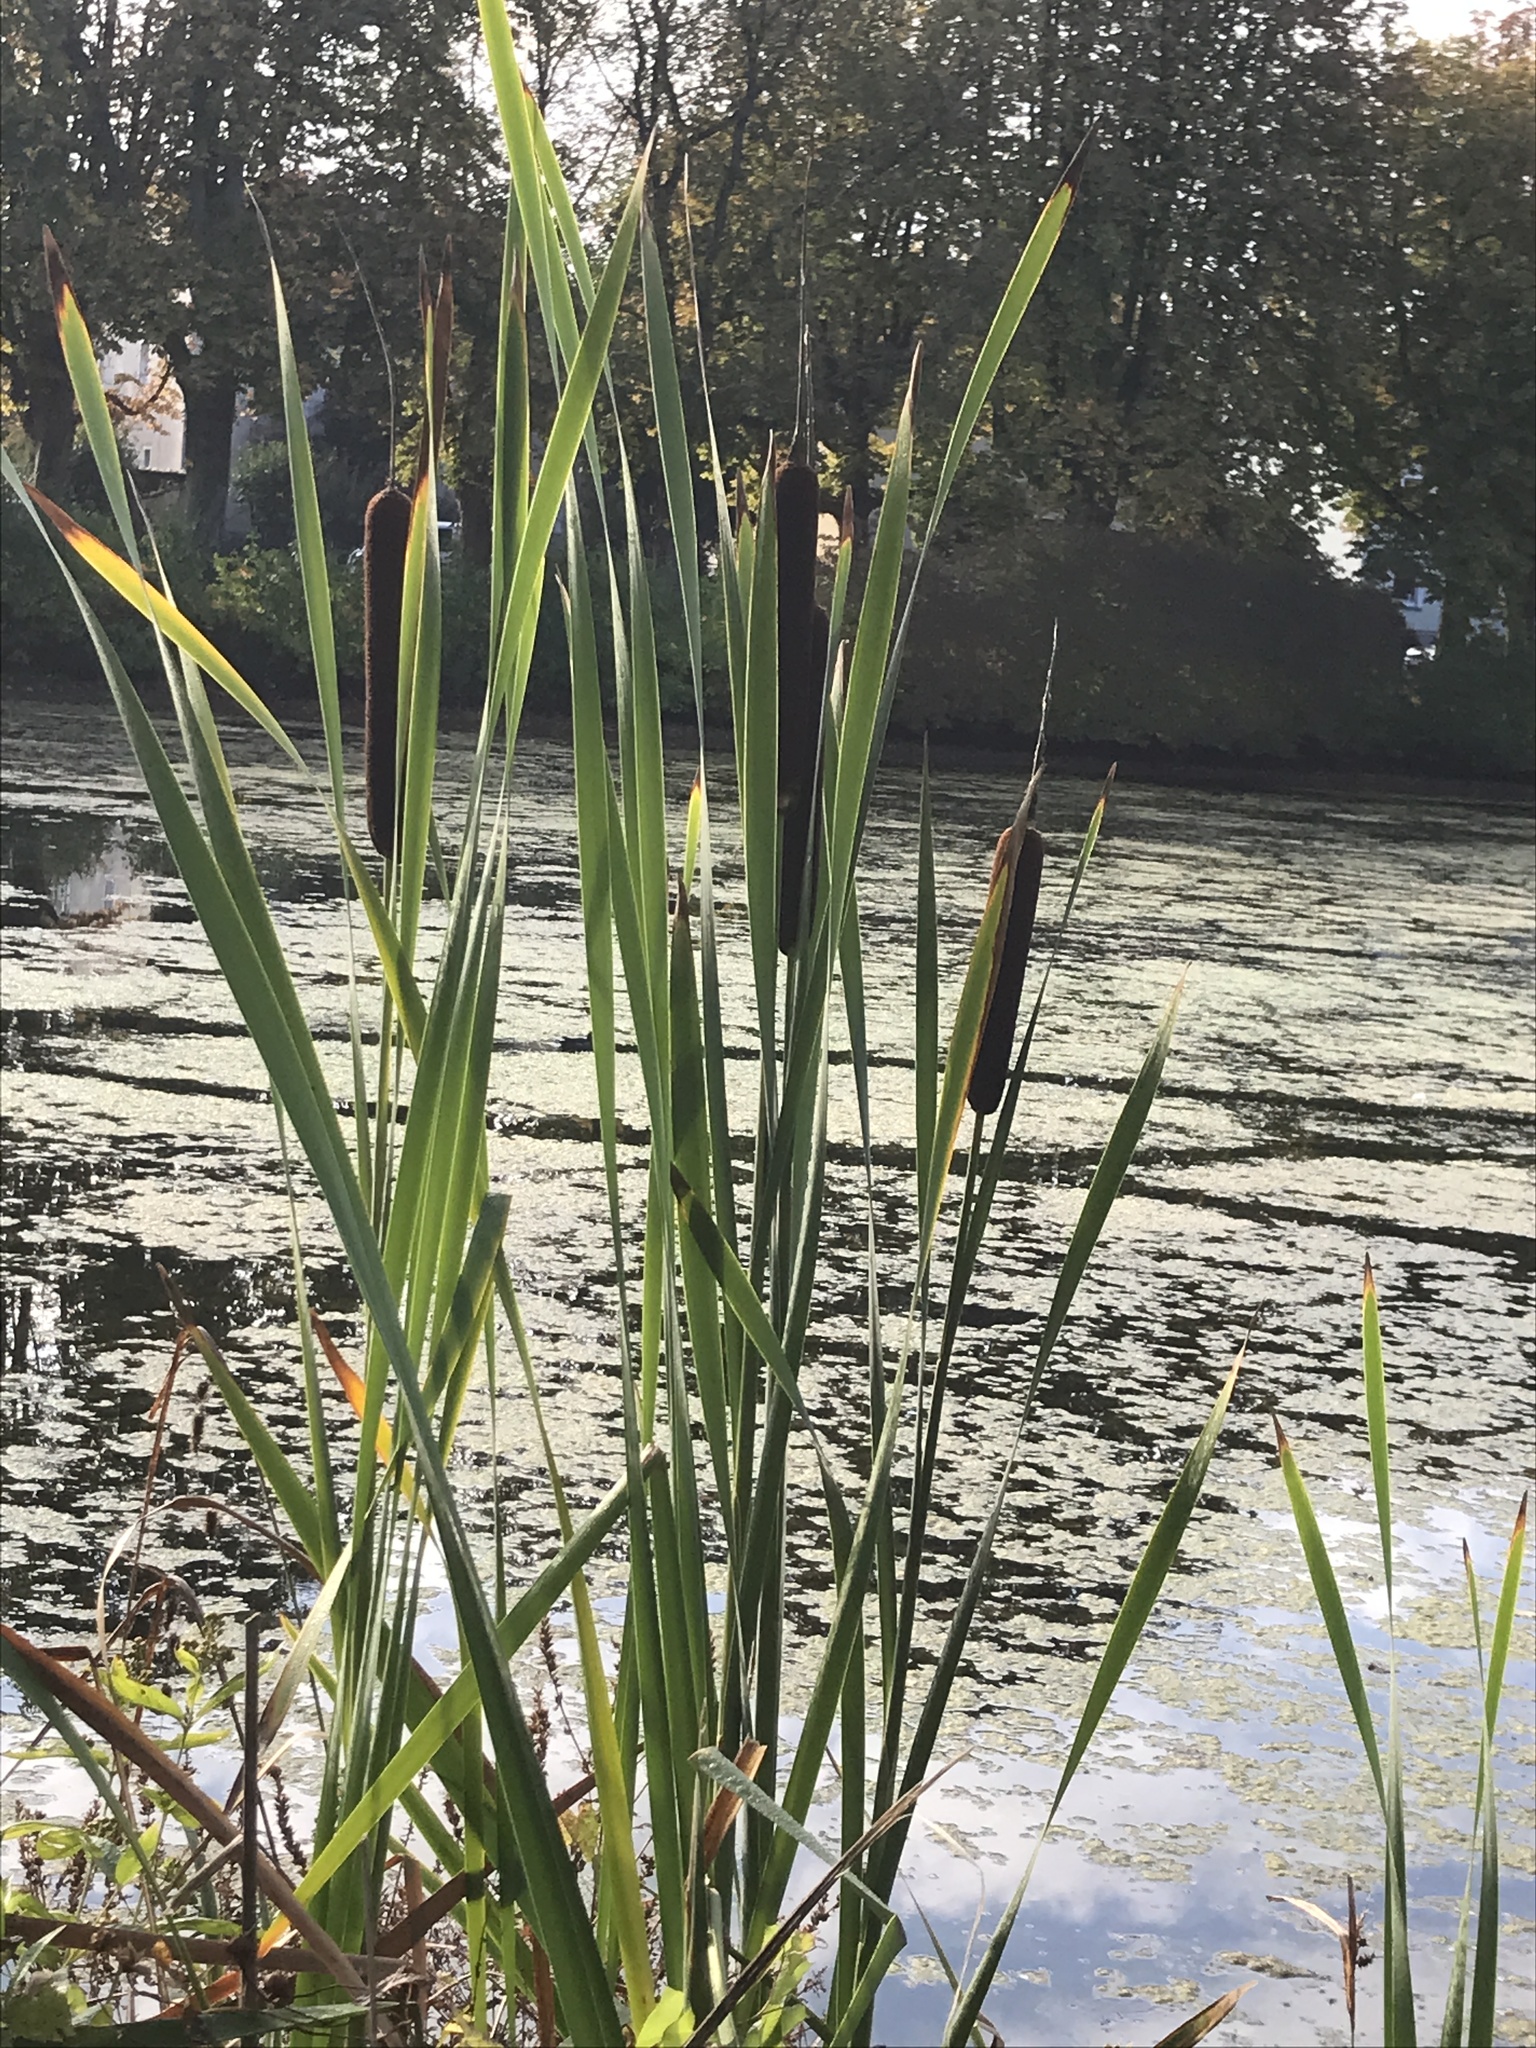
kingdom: Plantae
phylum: Tracheophyta
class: Liliopsida
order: Poales
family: Typhaceae
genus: Typha
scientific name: Typha latifolia
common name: Broadleaf cattail
